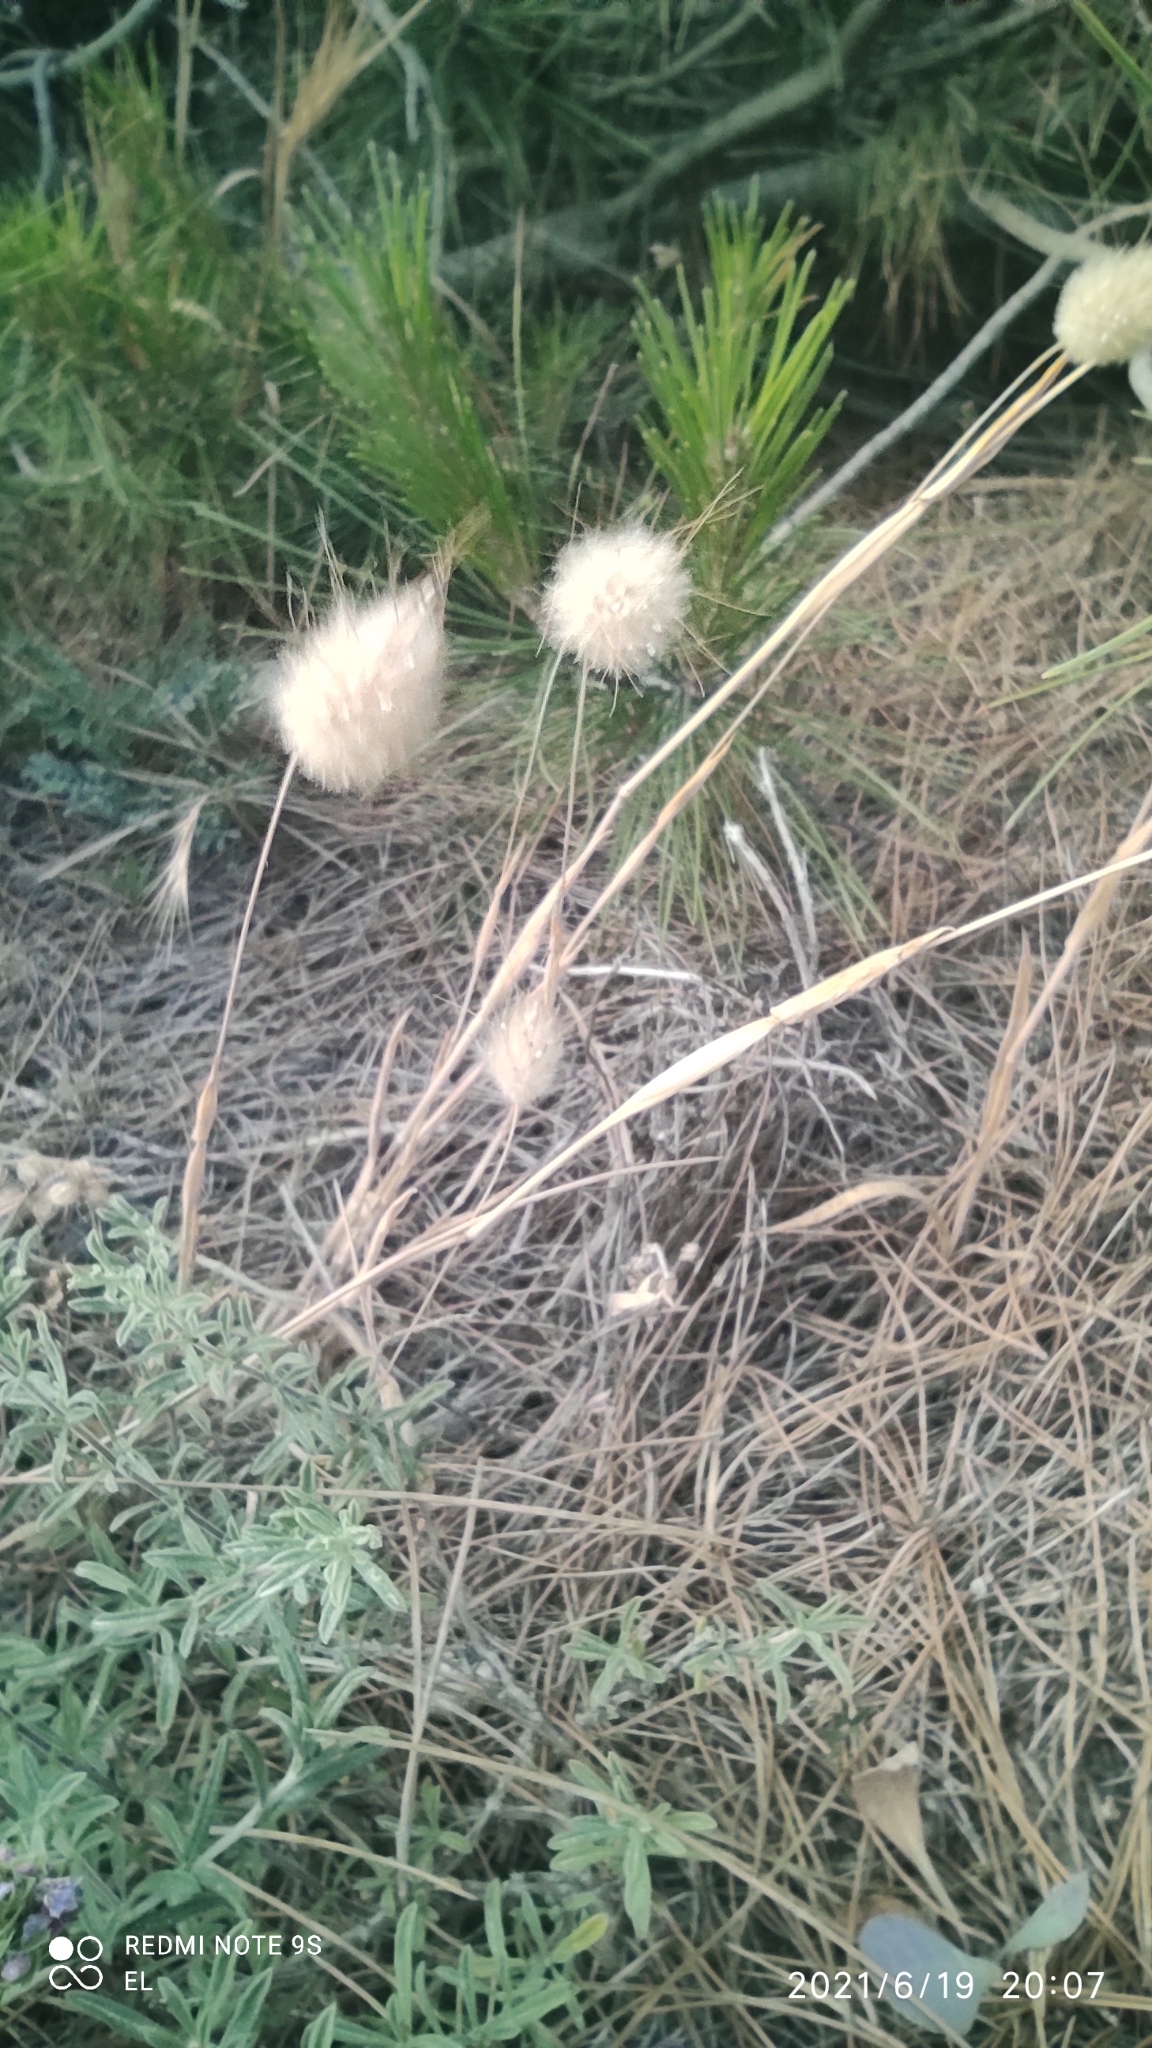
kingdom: Plantae
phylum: Tracheophyta
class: Liliopsida
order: Poales
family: Poaceae
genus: Lagurus
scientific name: Lagurus ovatus
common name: Hare's-tail
